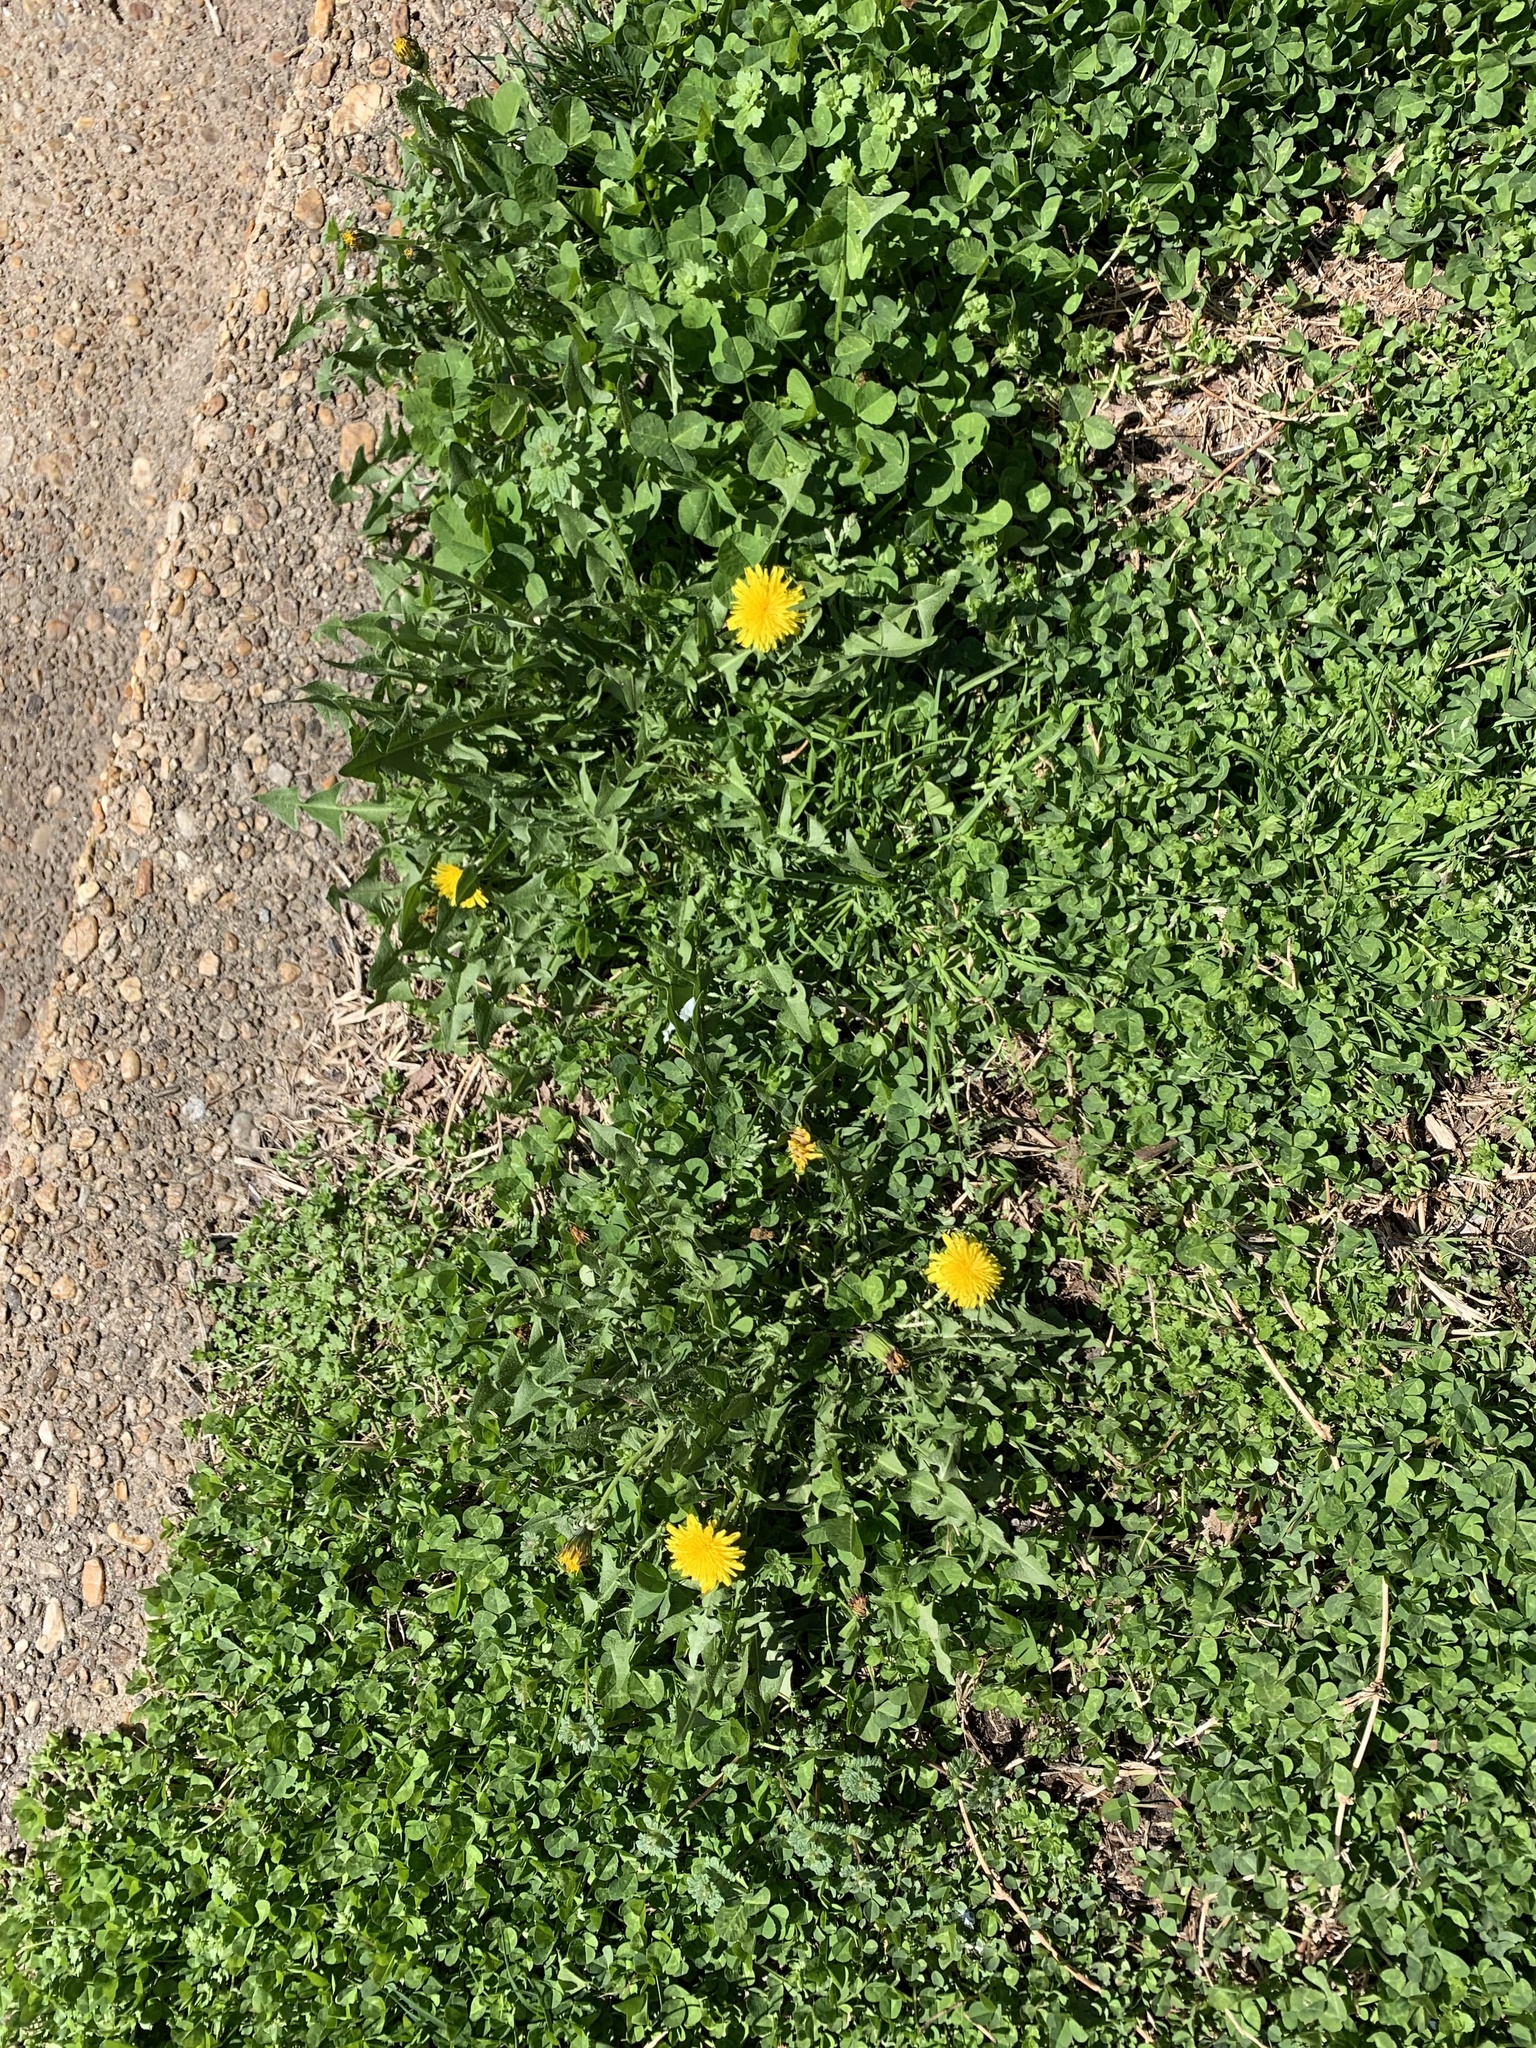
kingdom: Plantae
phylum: Tracheophyta
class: Magnoliopsida
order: Asterales
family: Asteraceae
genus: Taraxacum
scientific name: Taraxacum officinale
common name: Common dandelion
